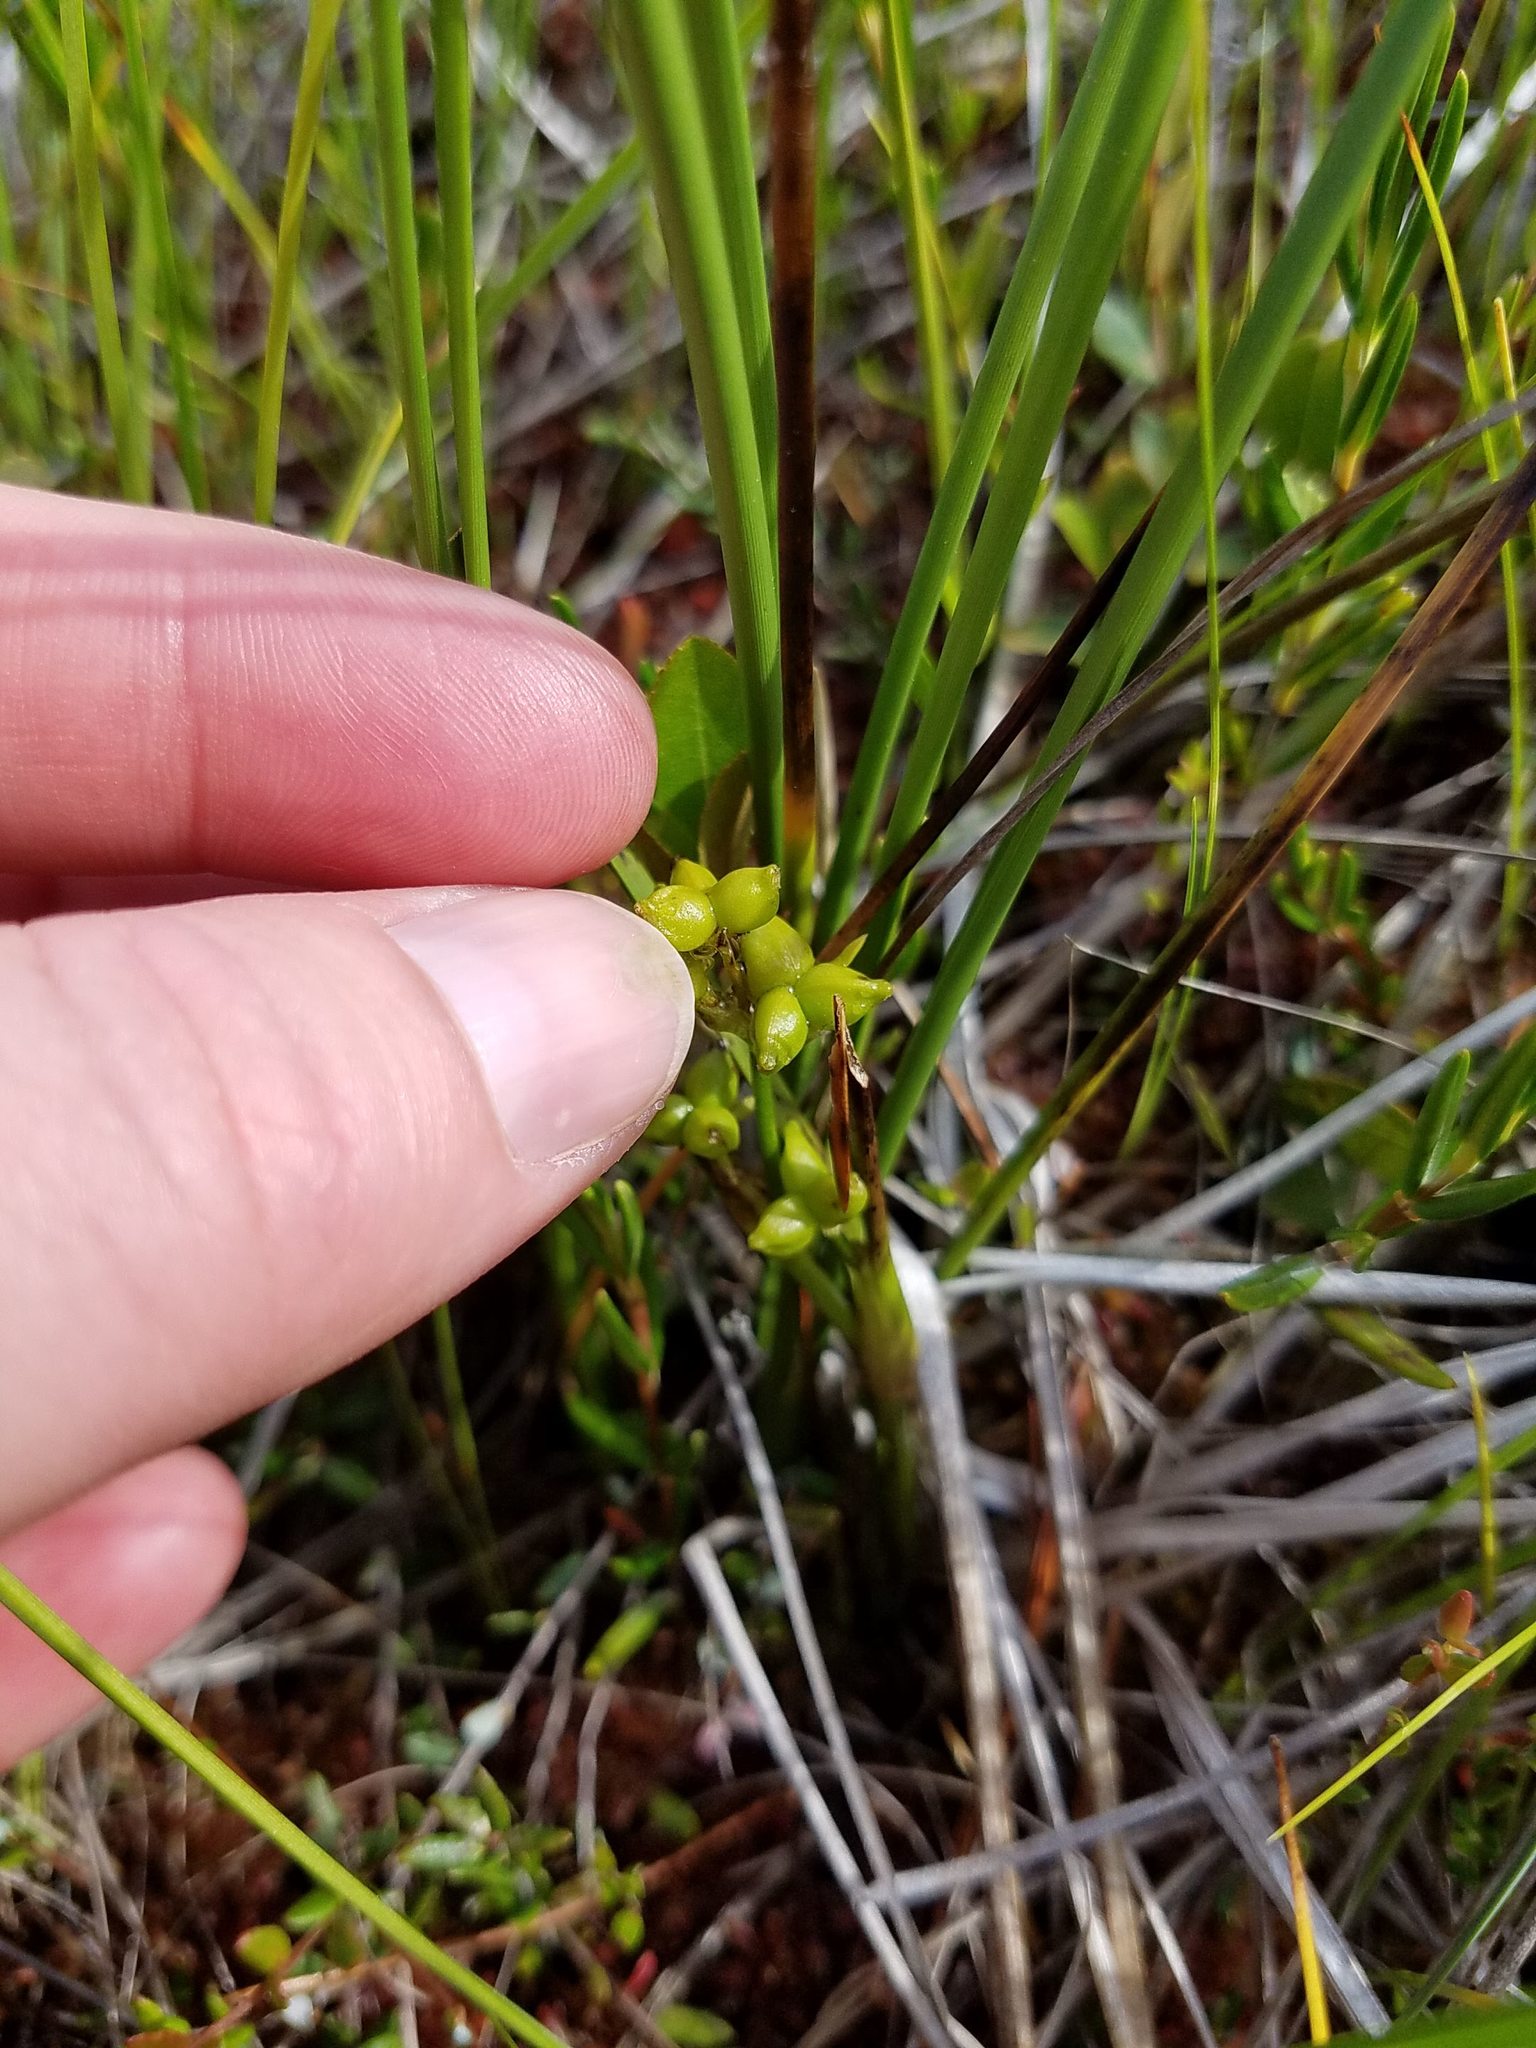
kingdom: Plantae
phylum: Tracheophyta
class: Liliopsida
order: Alismatales
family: Scheuchzeriaceae
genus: Scheuchzeria
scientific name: Scheuchzeria palustris
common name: Rannoch-rush
